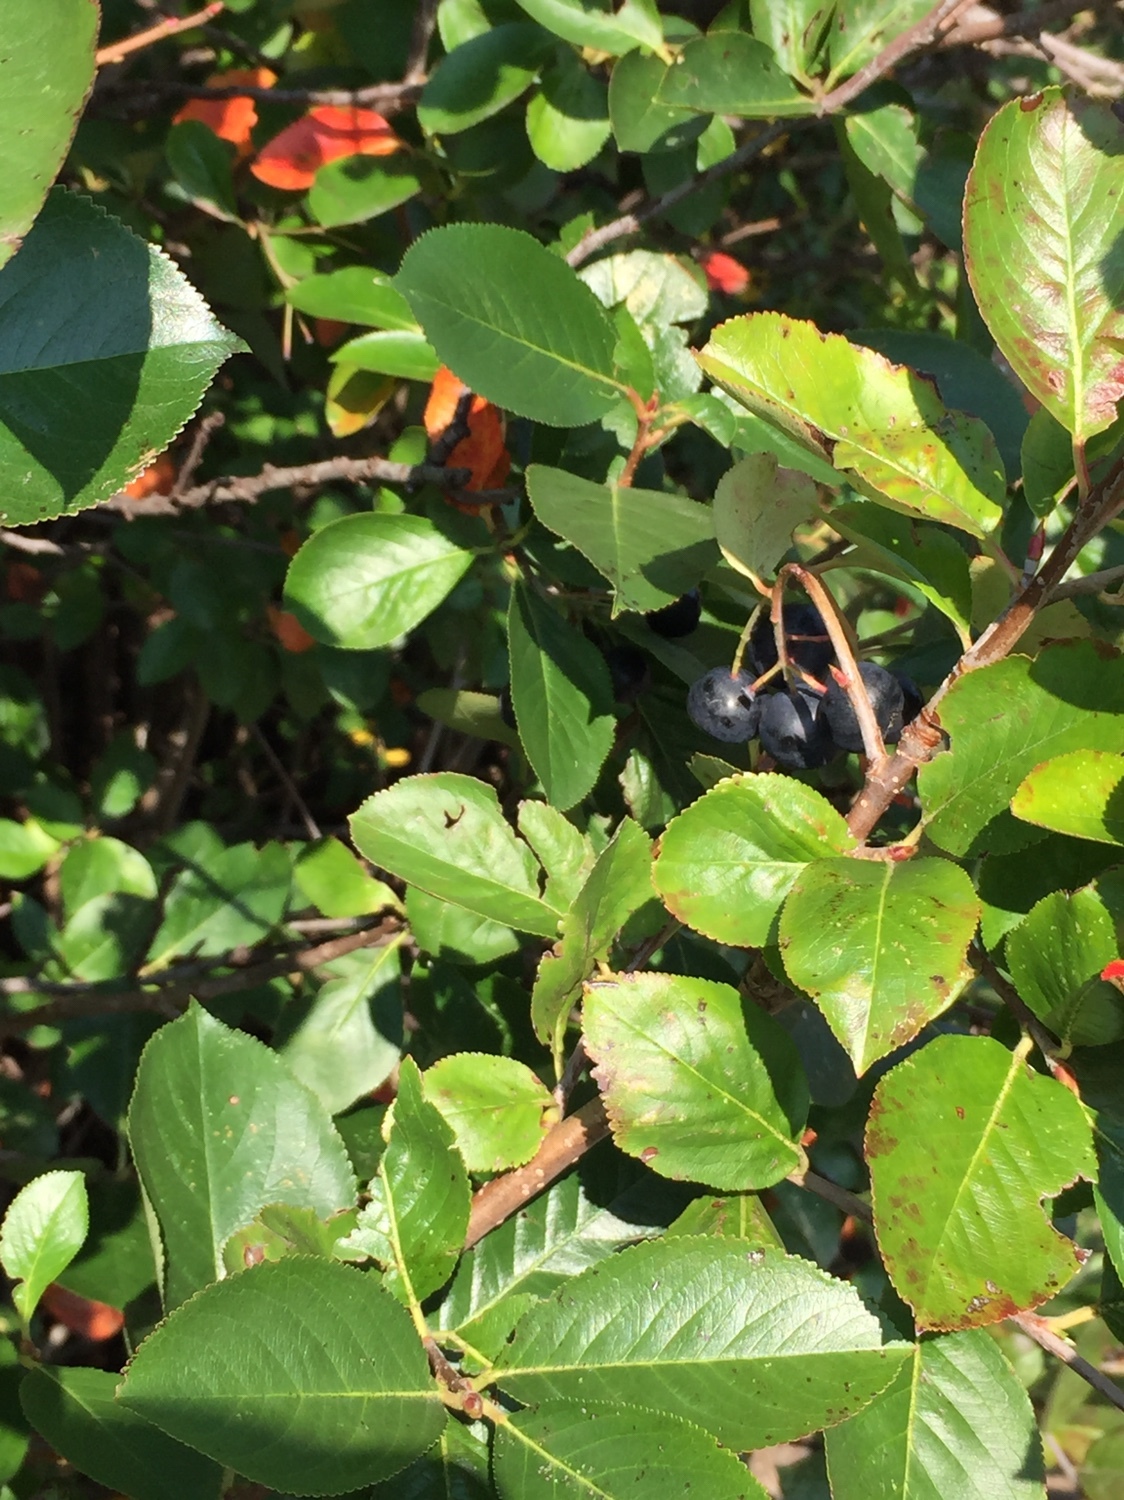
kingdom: Plantae
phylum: Tracheophyta
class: Magnoliopsida
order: Rosales
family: Rosaceae
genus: Aronia
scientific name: Aronia melanocarpa
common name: Black chokeberry
